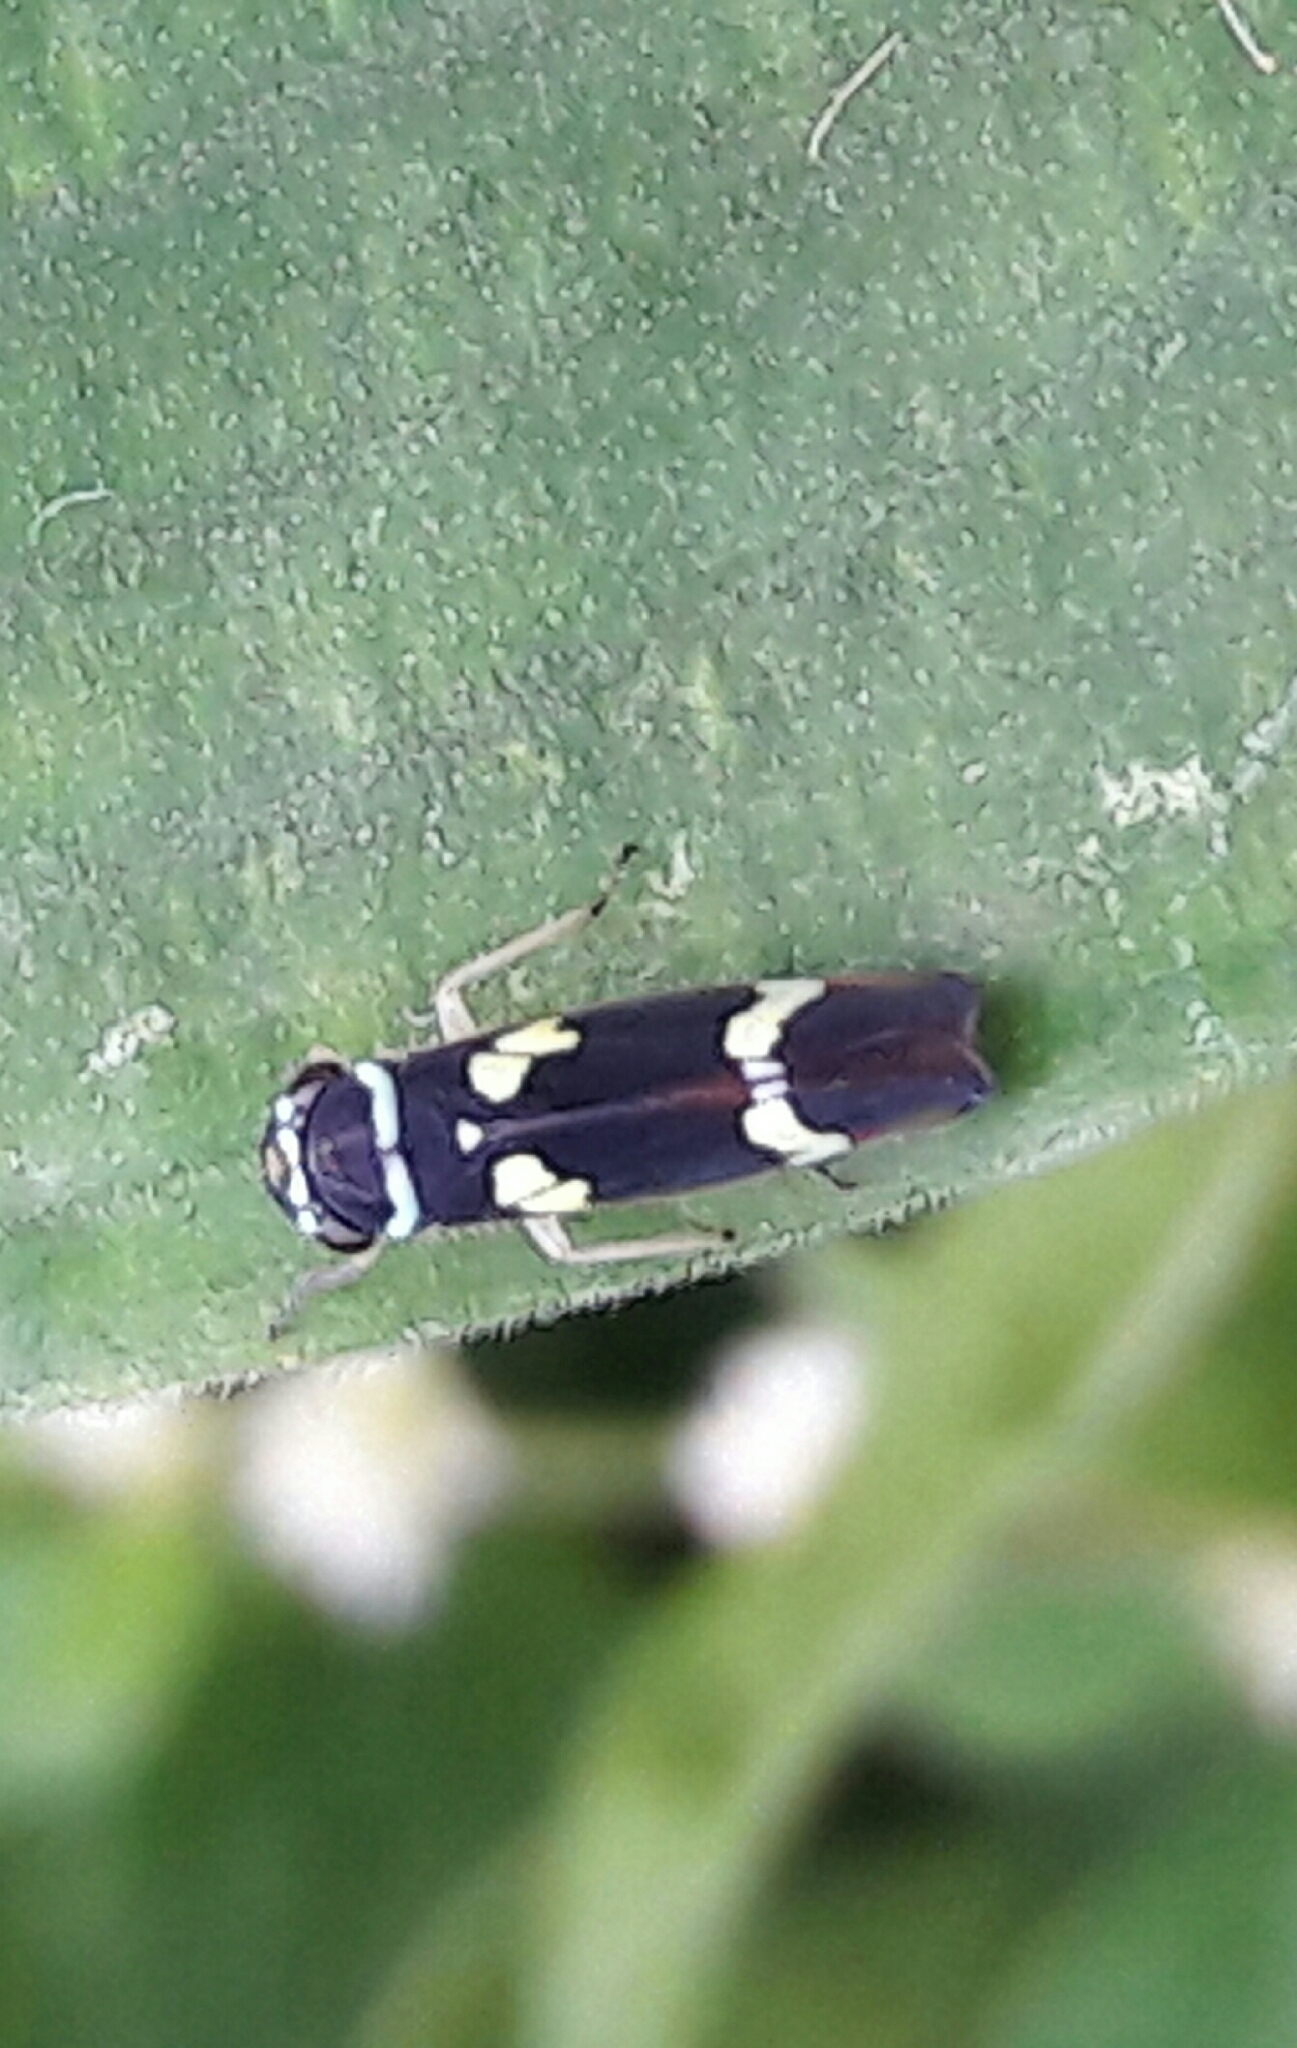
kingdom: Animalia
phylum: Arthropoda
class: Insecta
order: Hemiptera
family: Cicadellidae
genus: Macugonalia
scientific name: Macugonalia leucomelas
